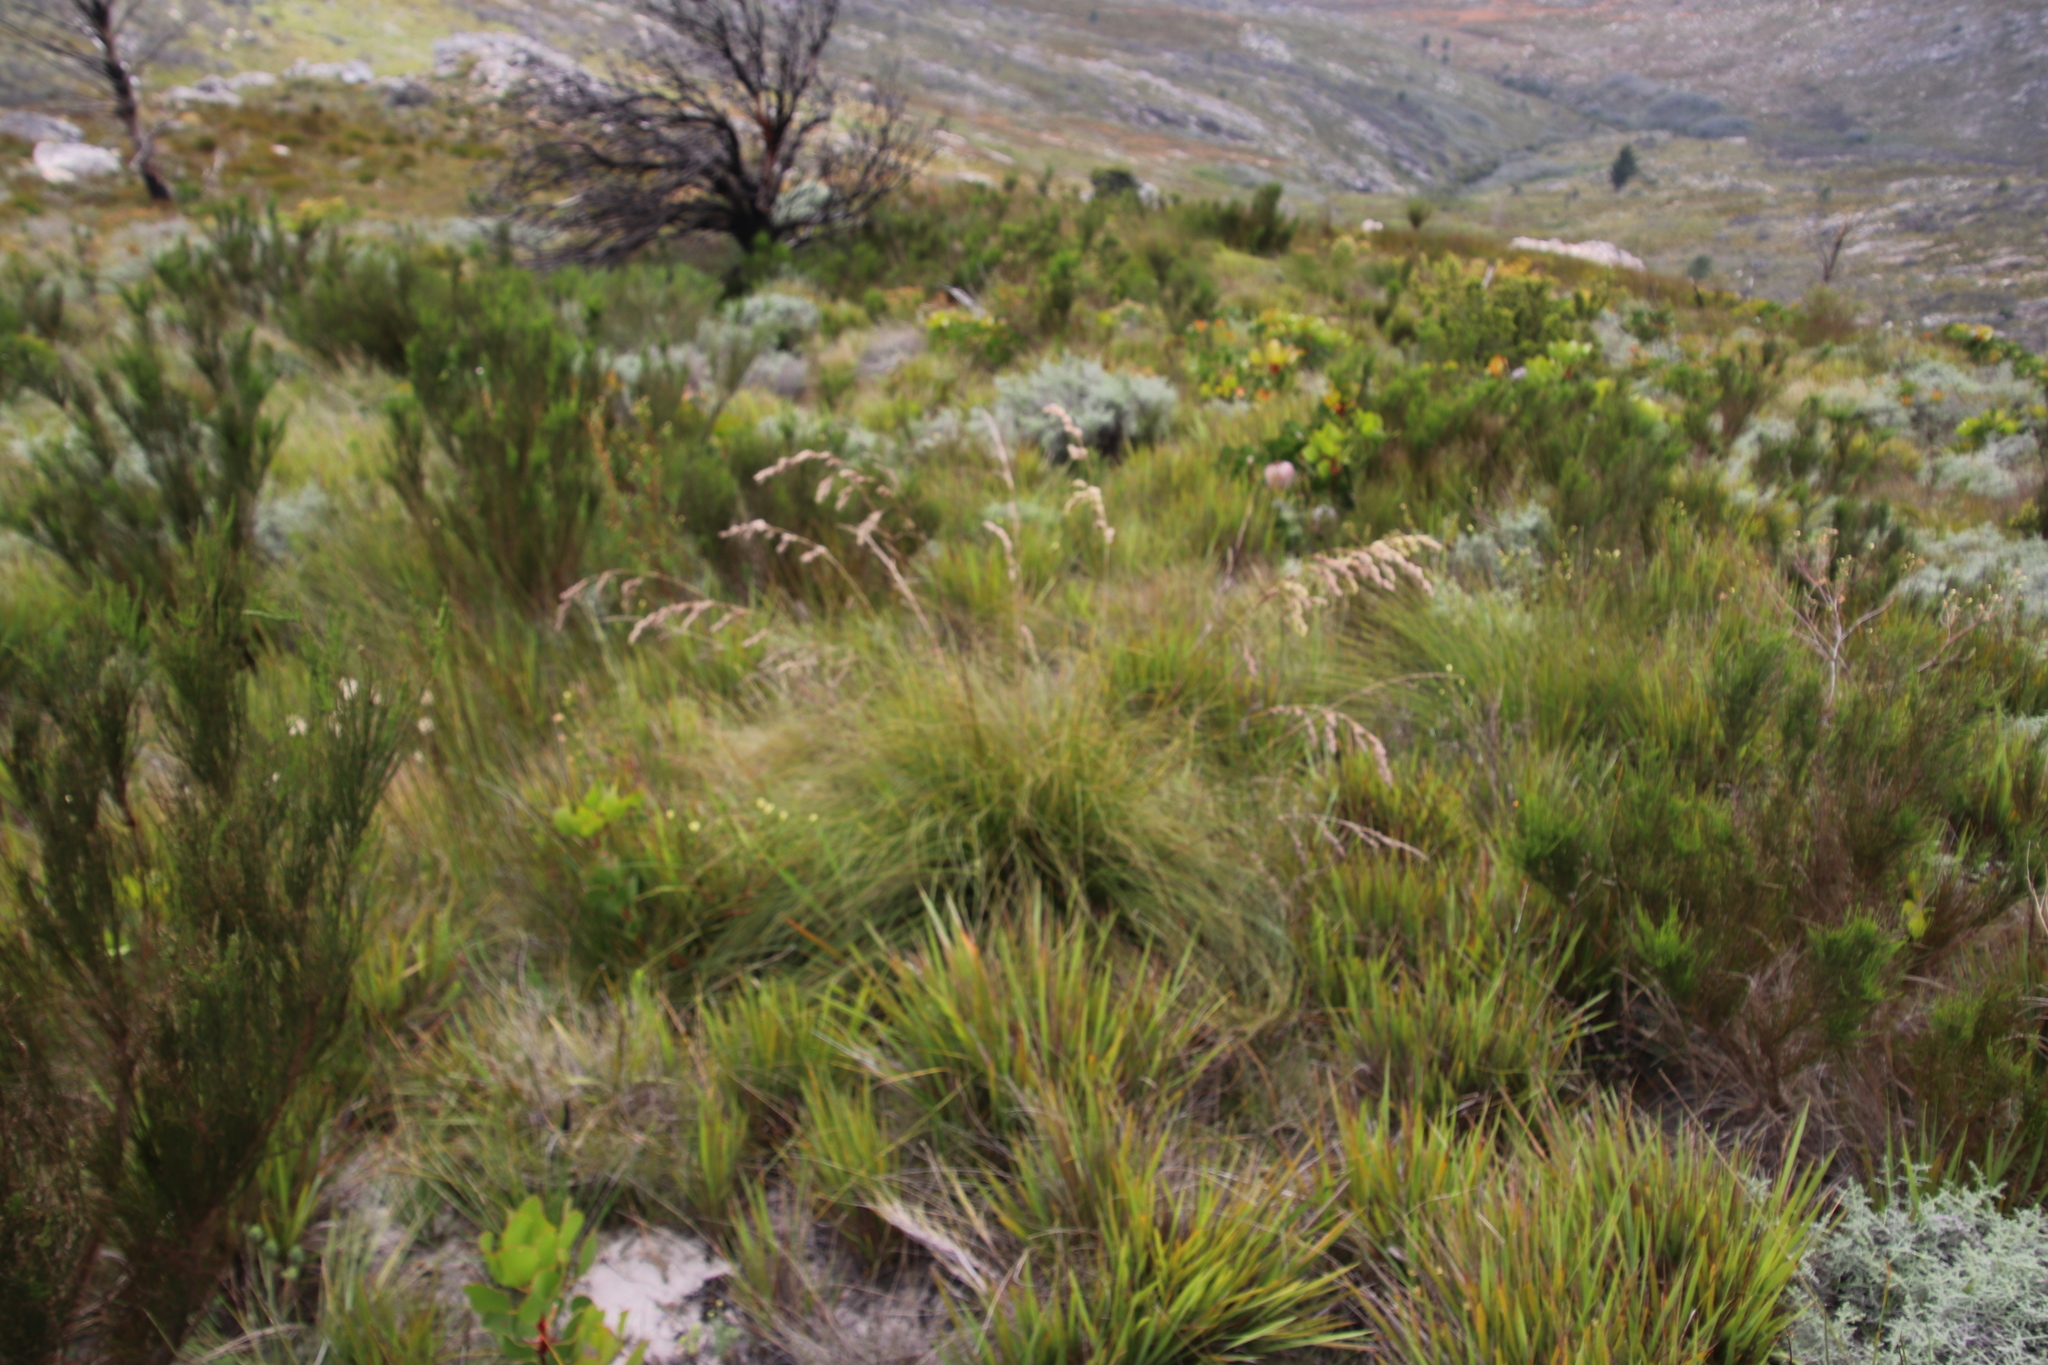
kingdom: Plantae
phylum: Tracheophyta
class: Liliopsida
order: Poales
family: Cyperaceae
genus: Tetraria
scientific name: Tetraria involucrata
